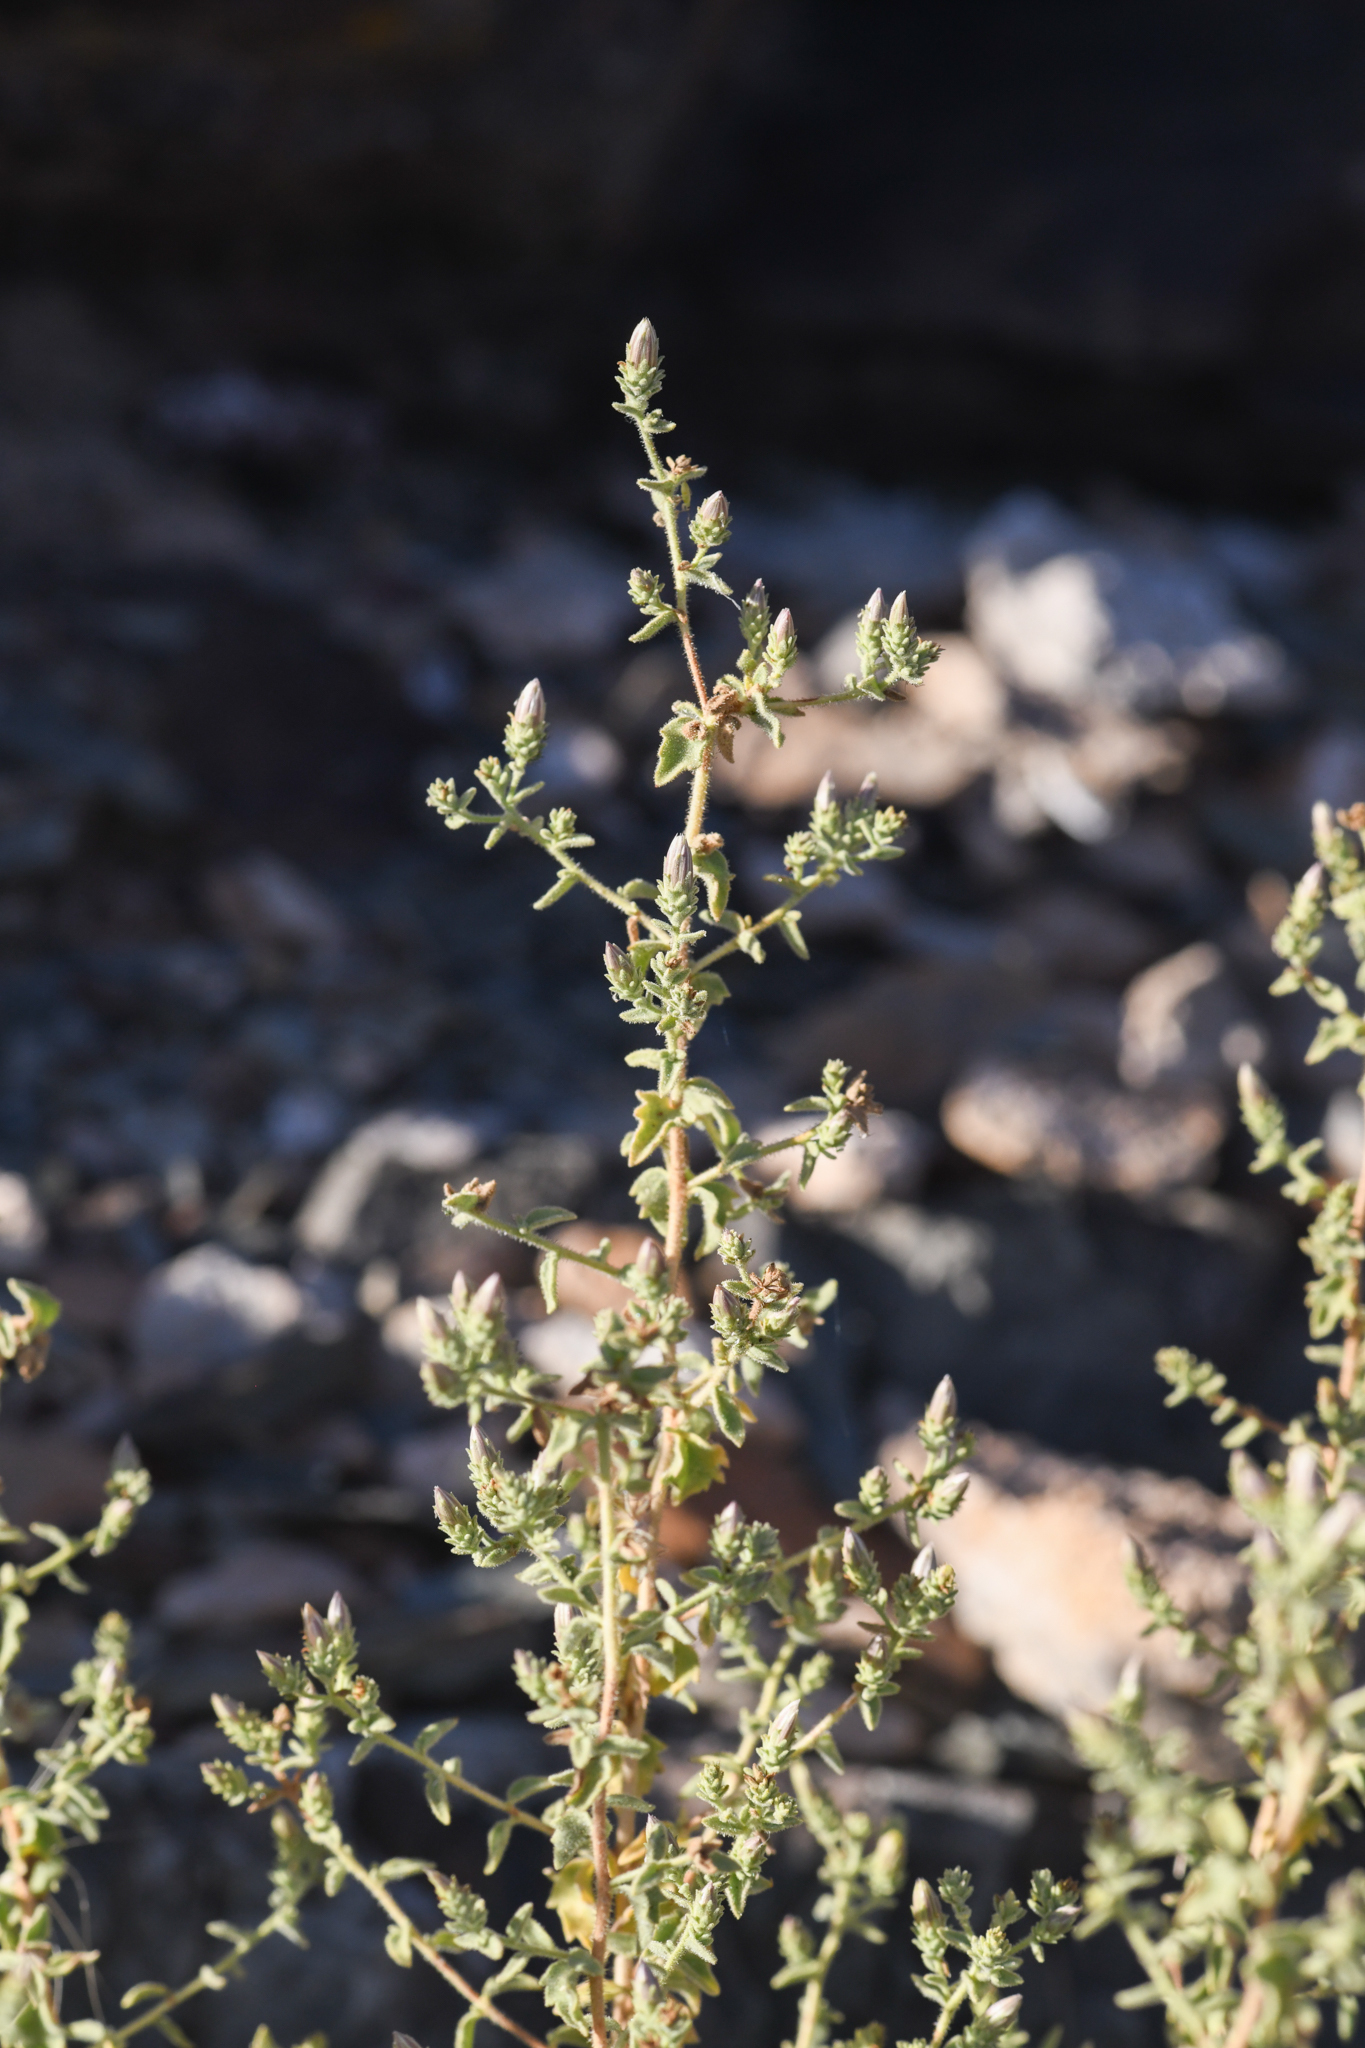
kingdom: Plantae
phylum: Tracheophyta
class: Magnoliopsida
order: Asterales
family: Asteraceae
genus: Brickellia
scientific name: Brickellia microphylla
